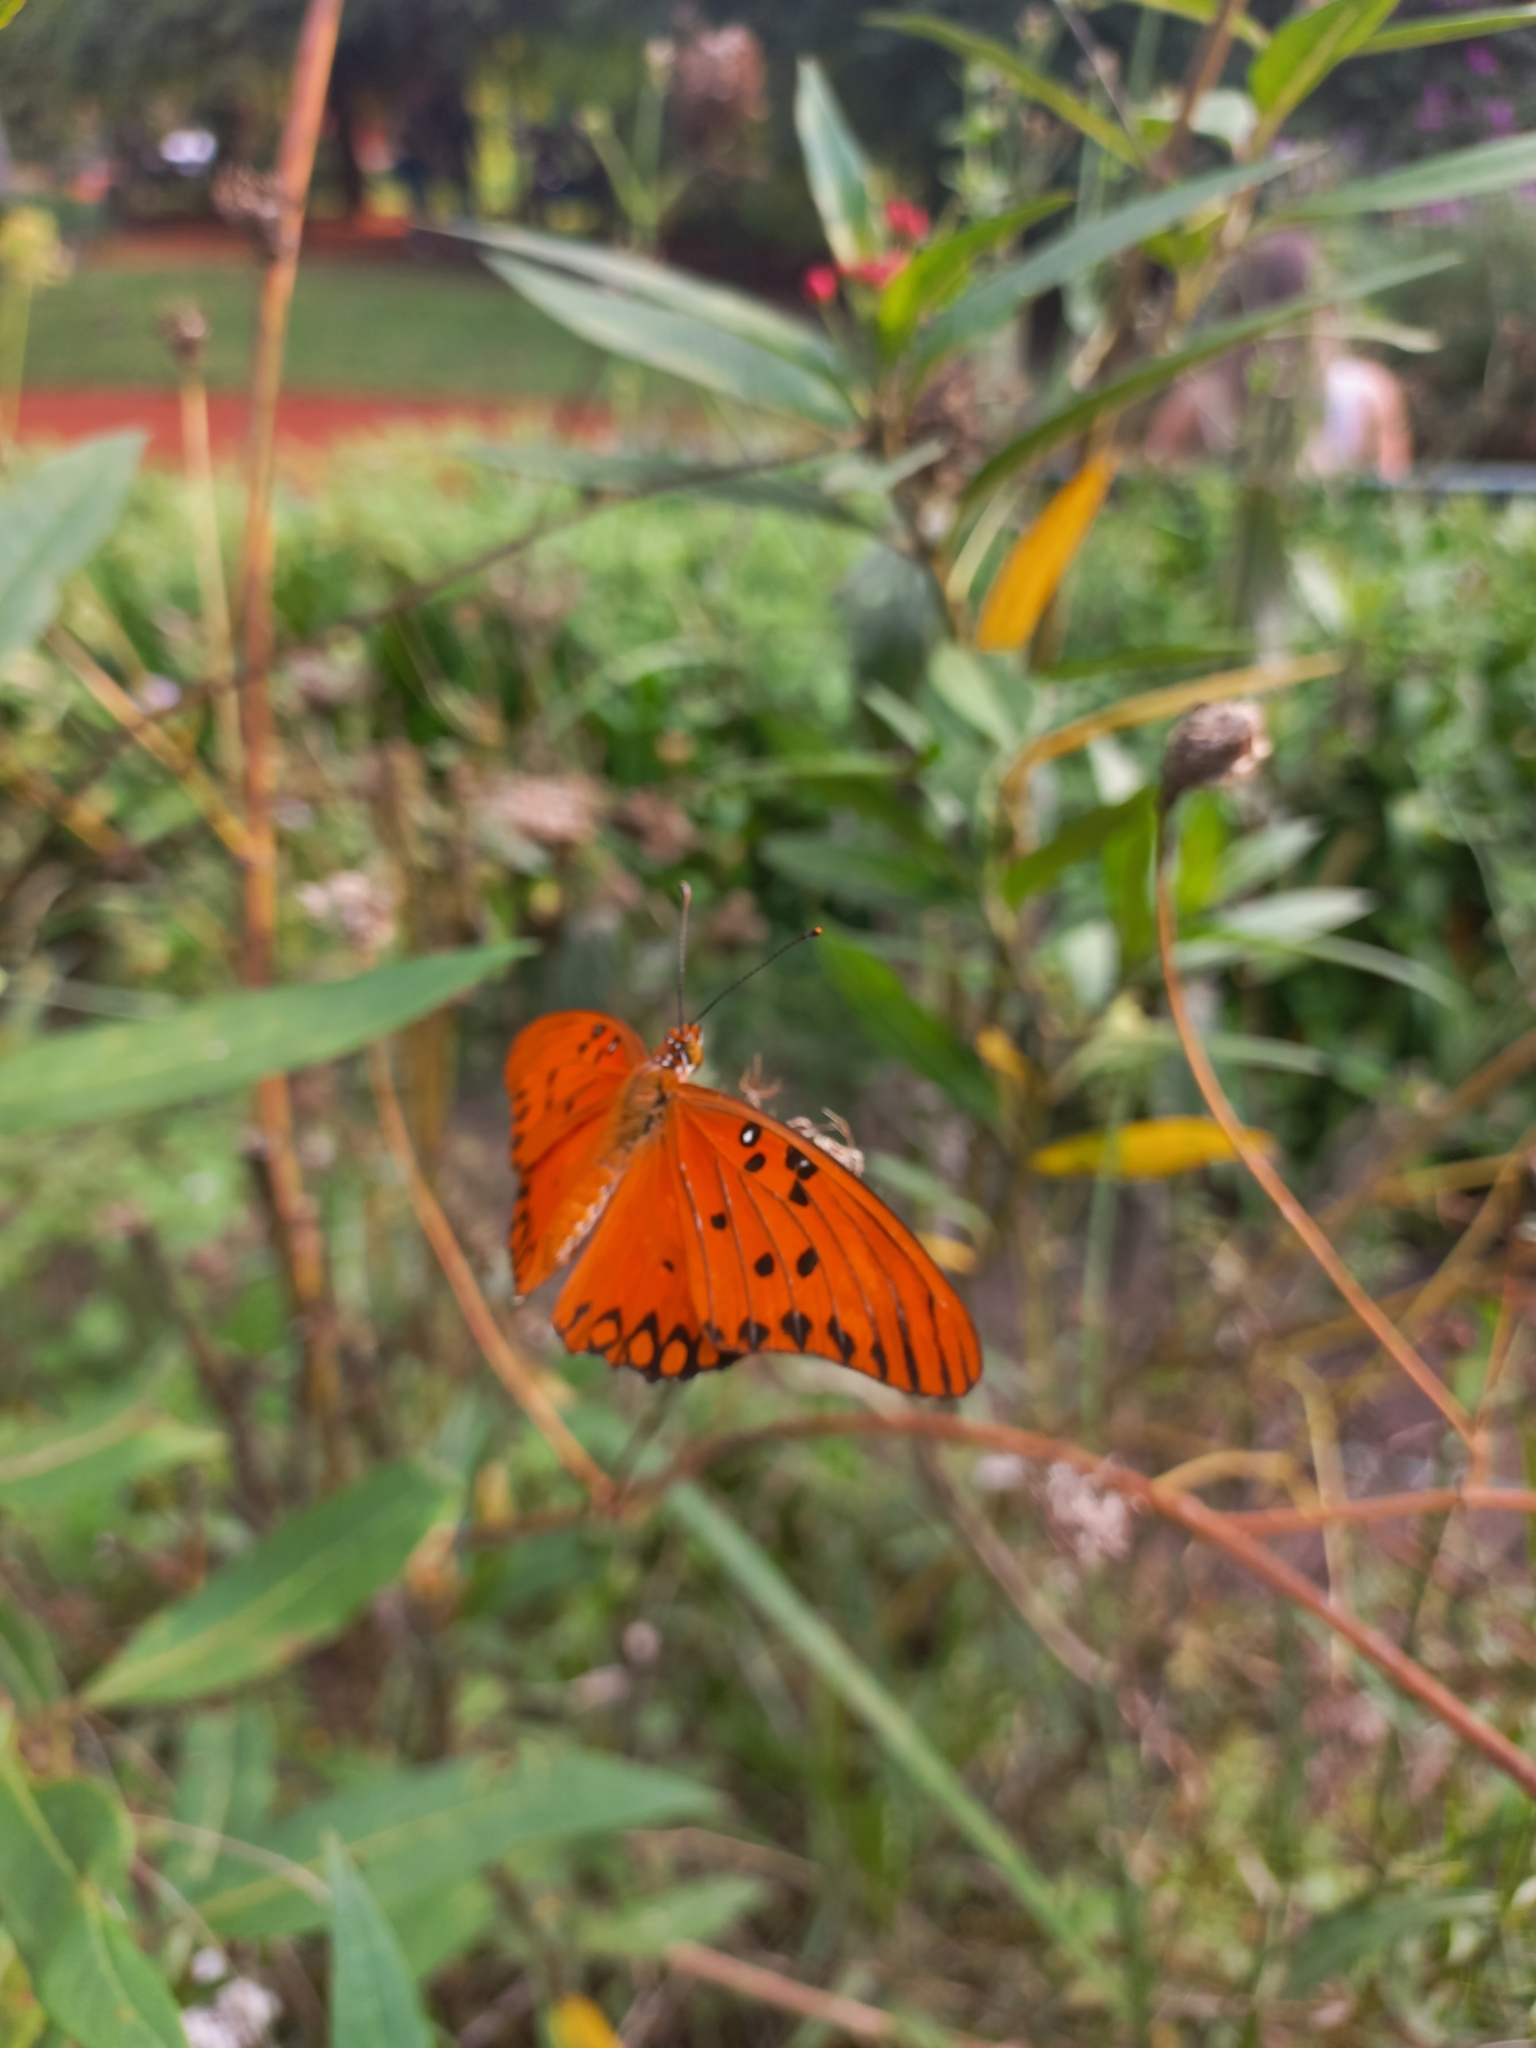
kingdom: Animalia
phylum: Arthropoda
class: Insecta
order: Lepidoptera
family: Nymphalidae
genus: Dione
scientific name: Dione vanillae
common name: Gulf fritillary
